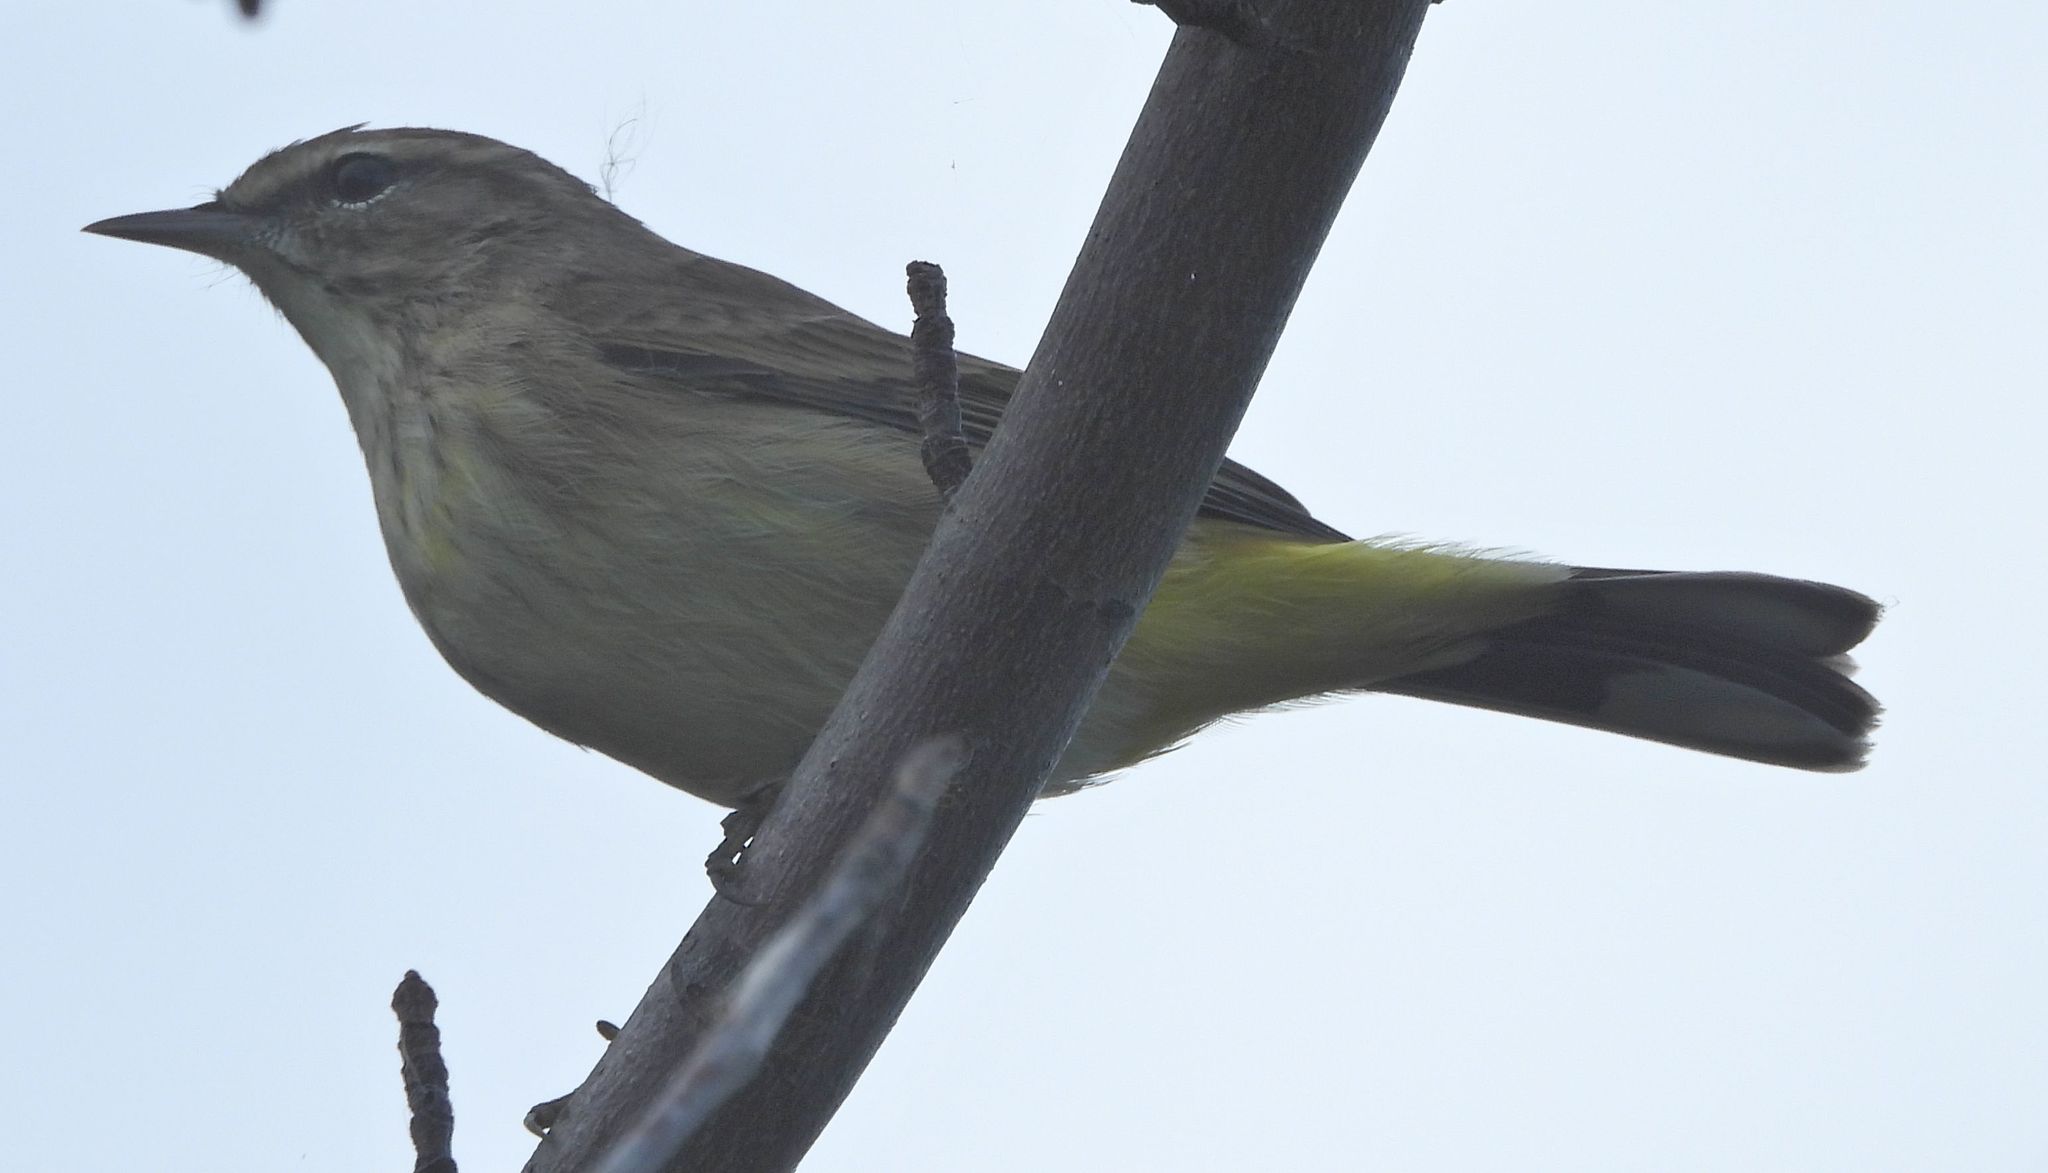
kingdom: Animalia
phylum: Chordata
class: Aves
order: Passeriformes
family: Parulidae
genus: Setophaga
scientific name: Setophaga palmarum
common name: Palm warbler
